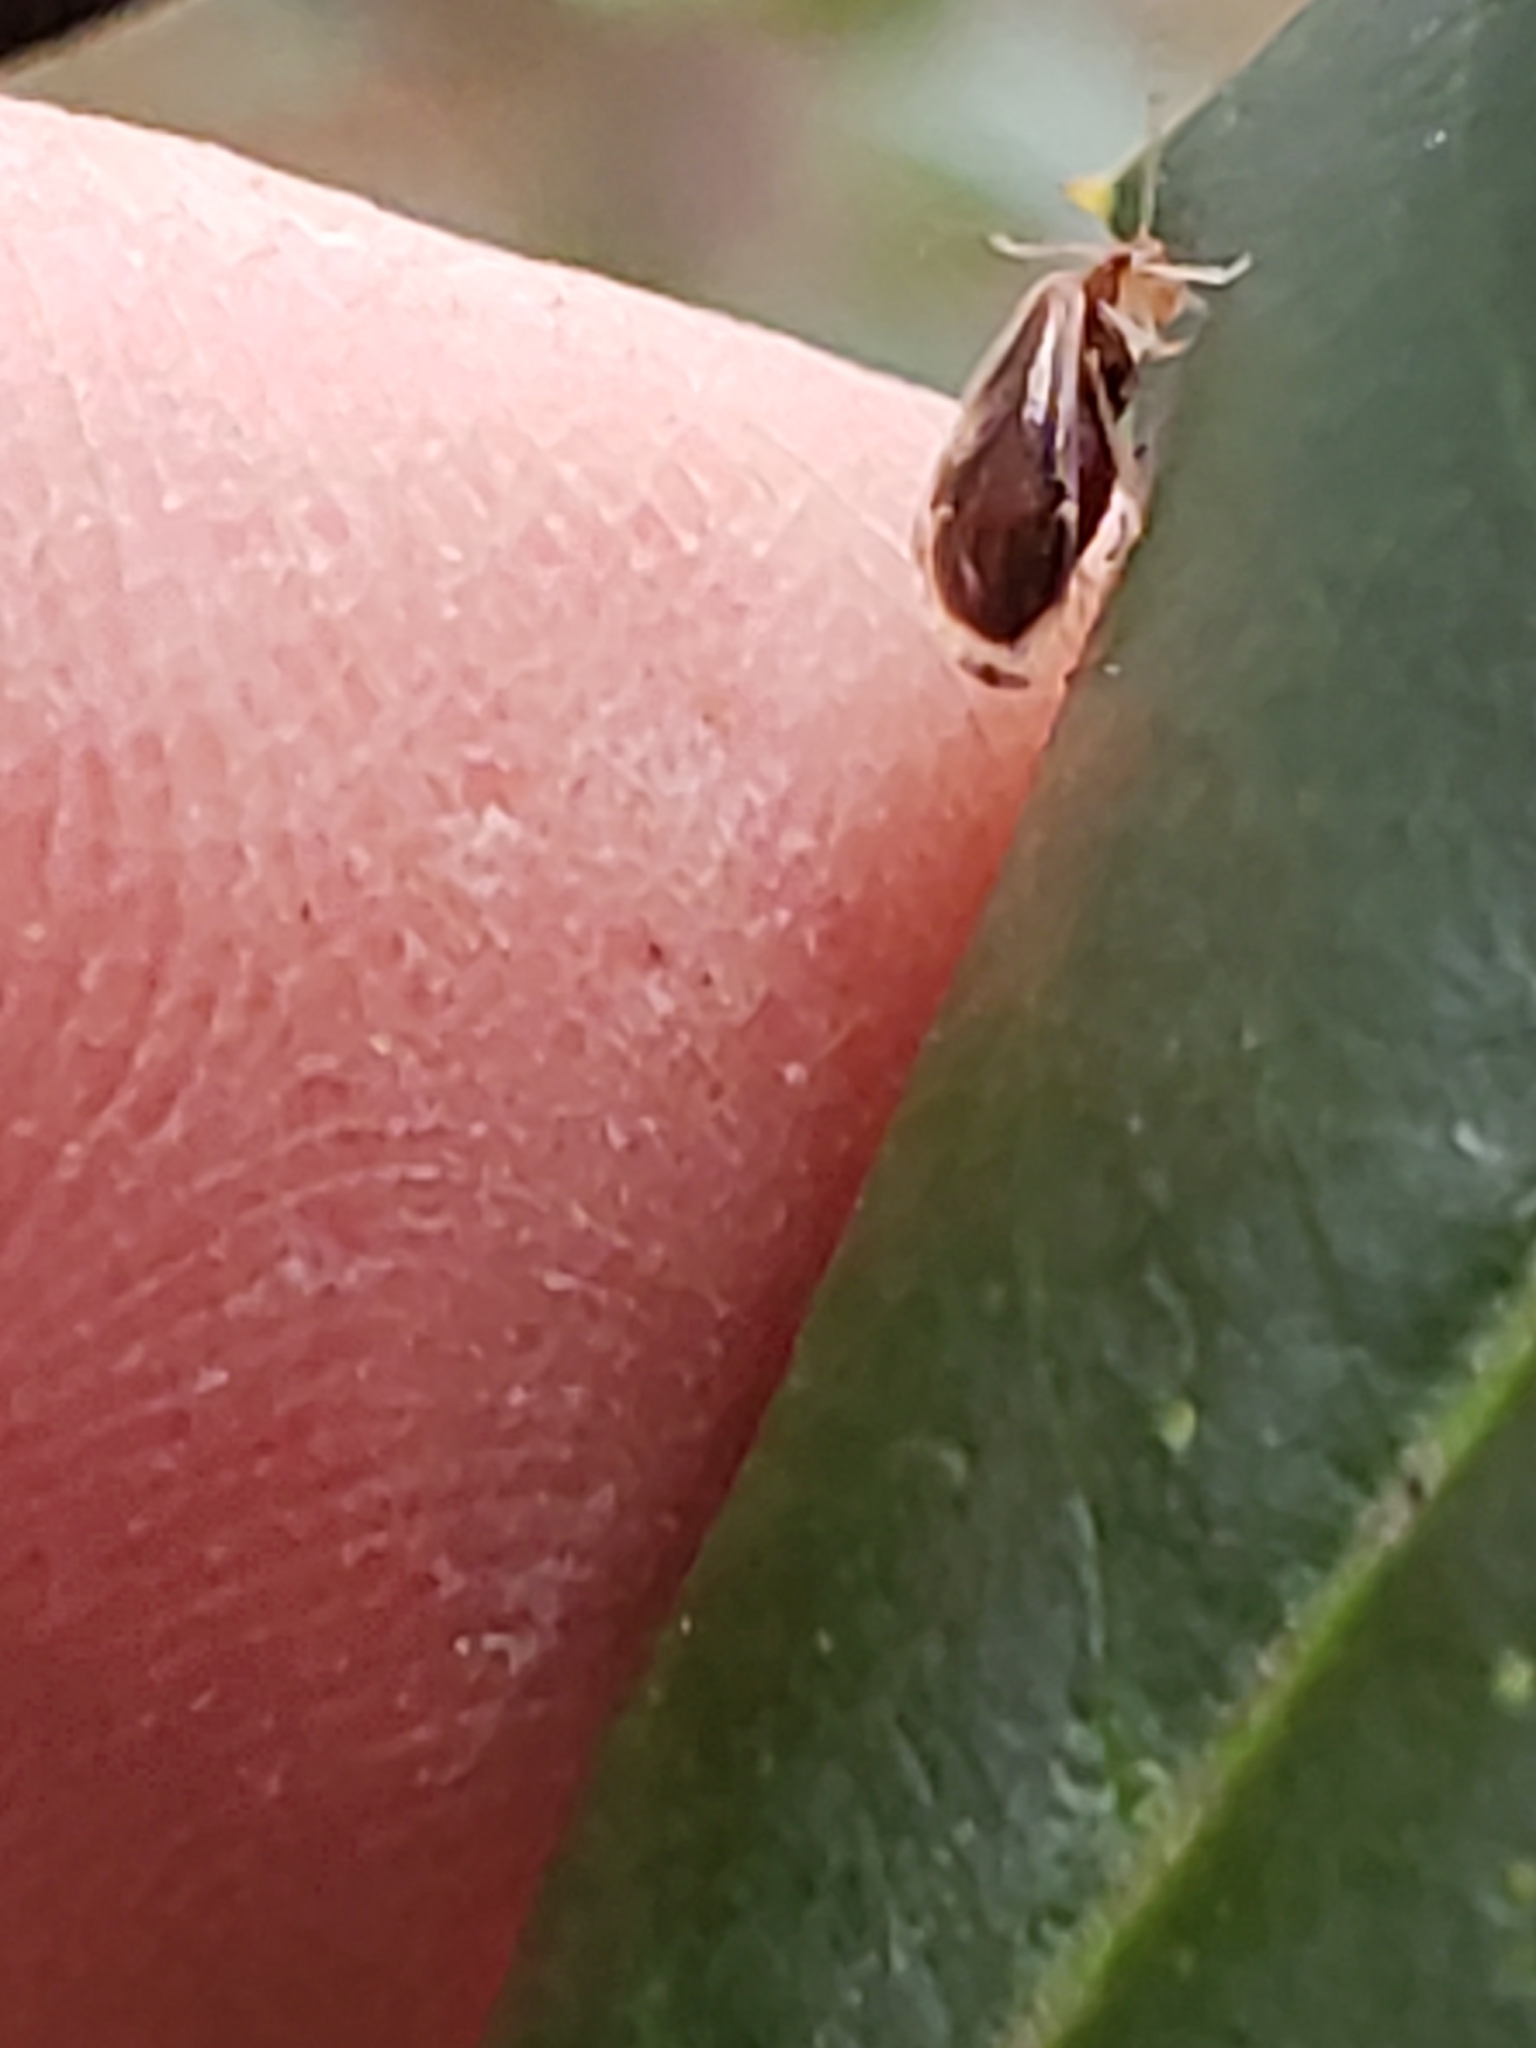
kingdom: Animalia
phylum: Arthropoda
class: Insecta
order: Psocodea
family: Amphipsocidae
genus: Polypsocus
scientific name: Polypsocus corruptus
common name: Corrupt barklouse
